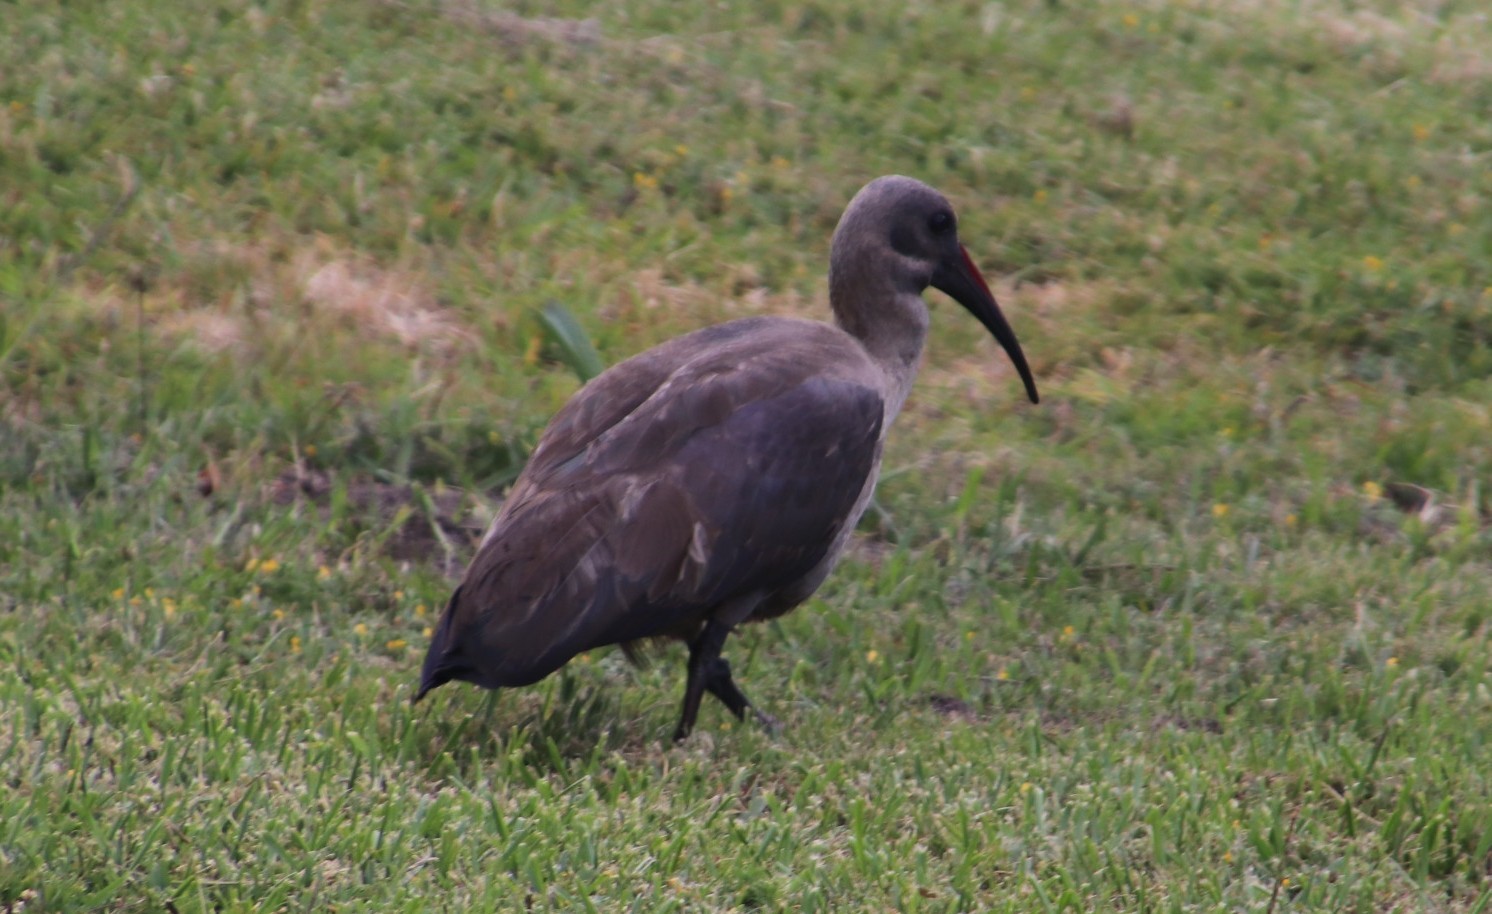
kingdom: Animalia
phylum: Chordata
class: Aves
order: Pelecaniformes
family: Threskiornithidae
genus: Bostrychia
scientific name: Bostrychia hagedash
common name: Hadada ibis
